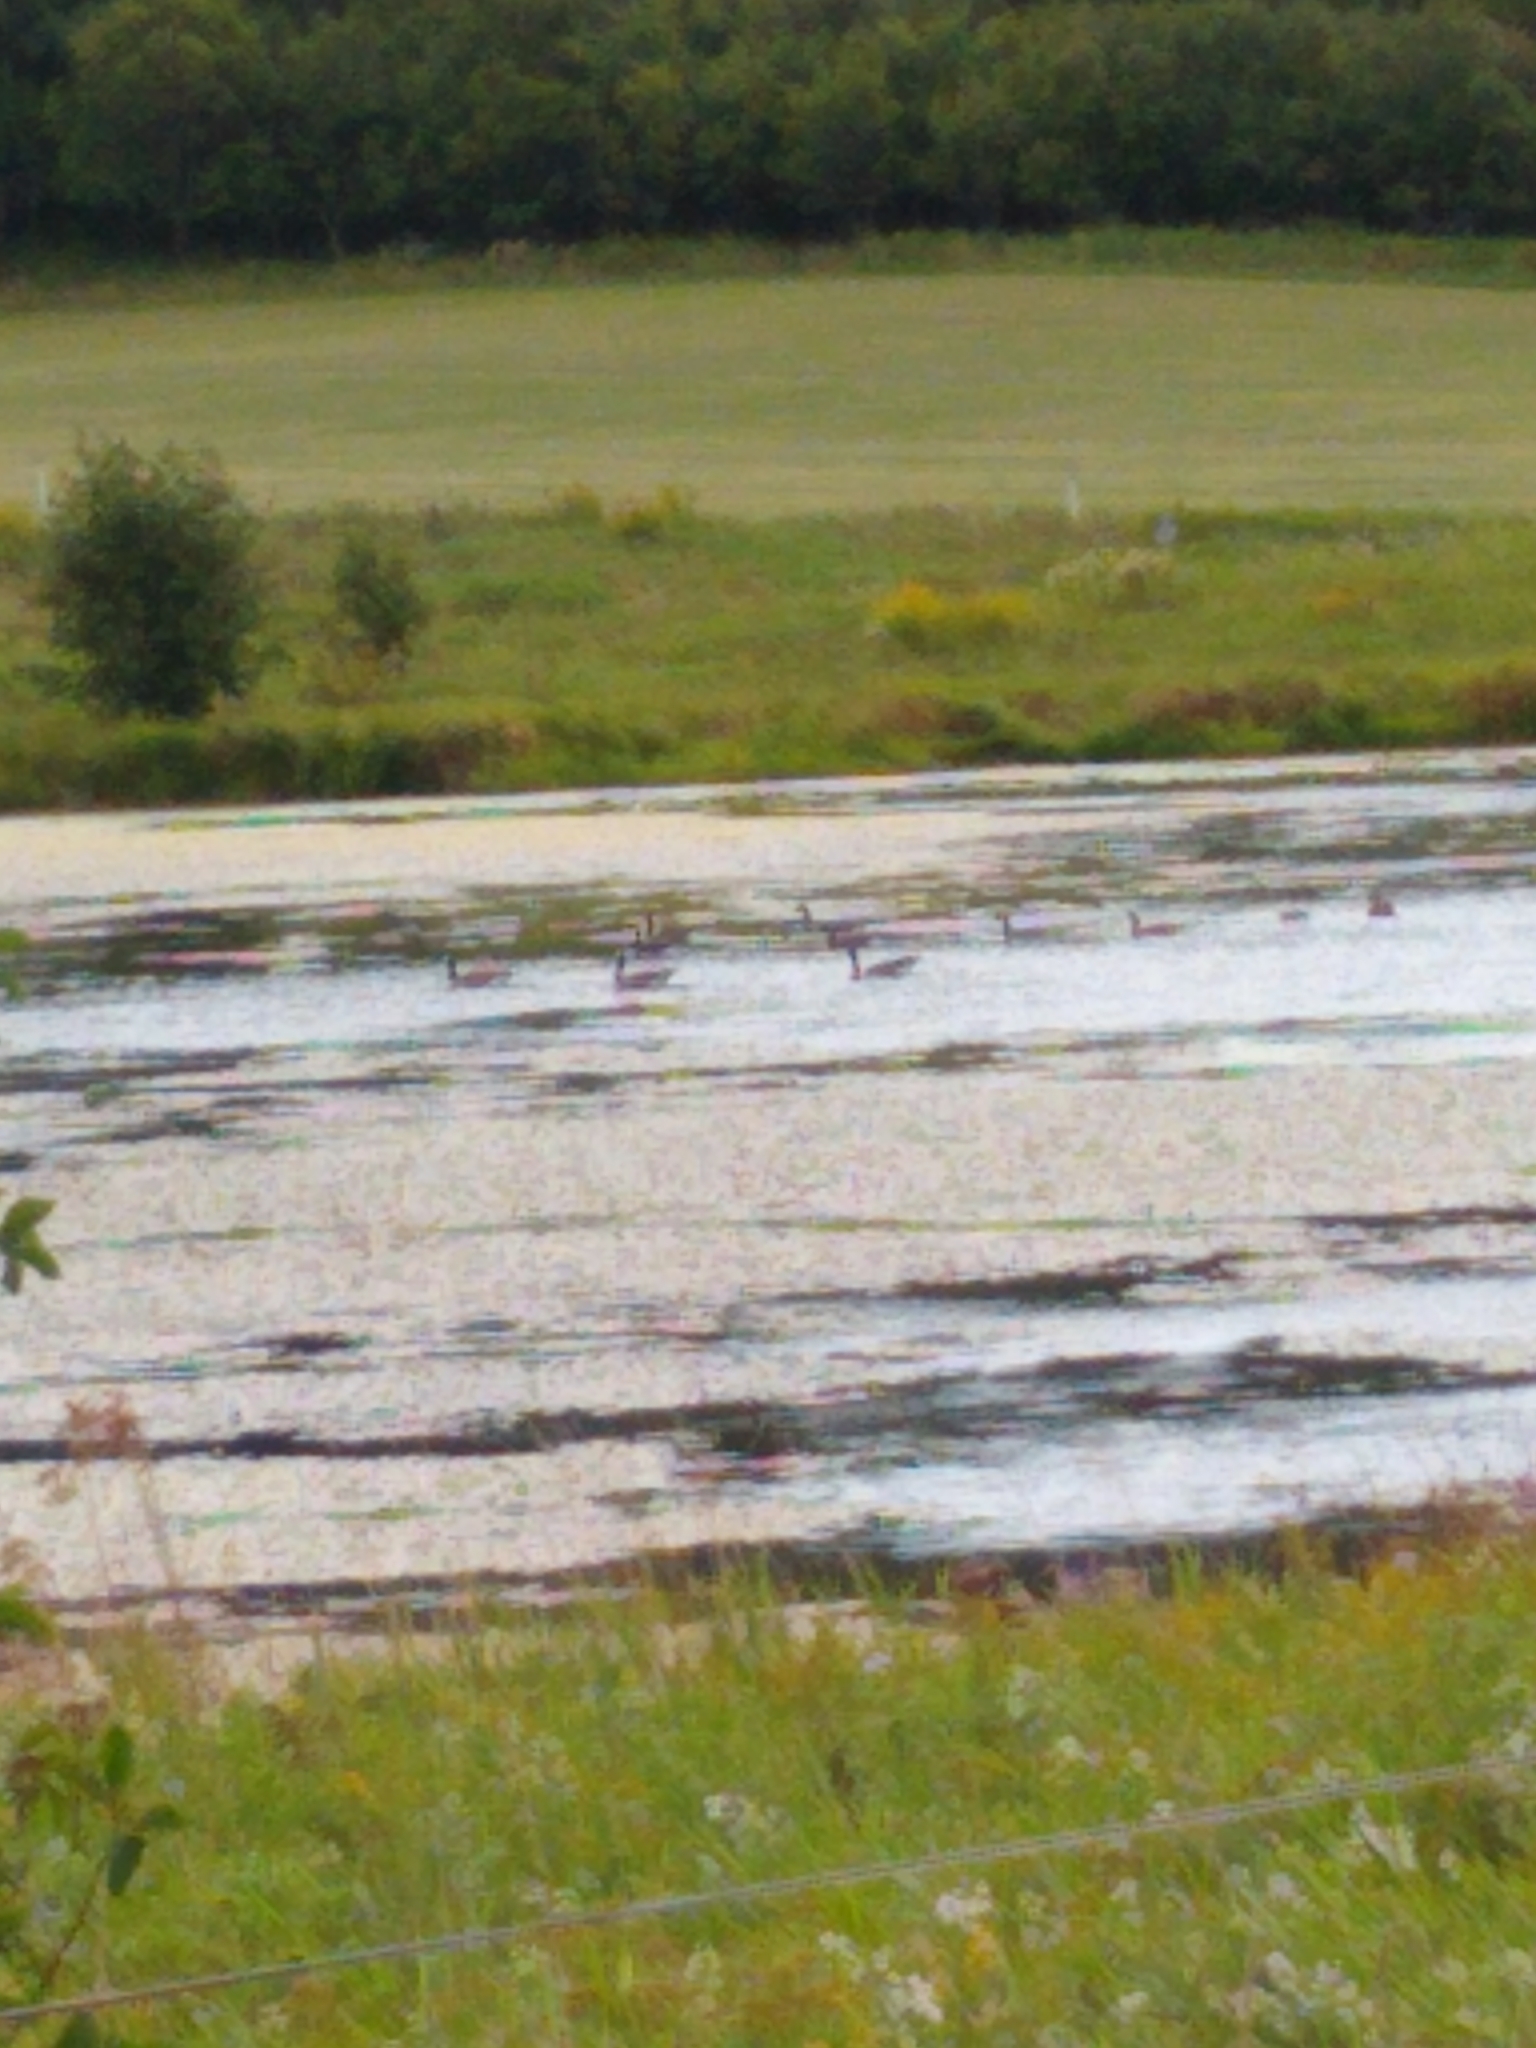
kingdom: Animalia
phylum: Chordata
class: Aves
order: Anseriformes
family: Anatidae
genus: Branta
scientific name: Branta canadensis
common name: Canada goose
